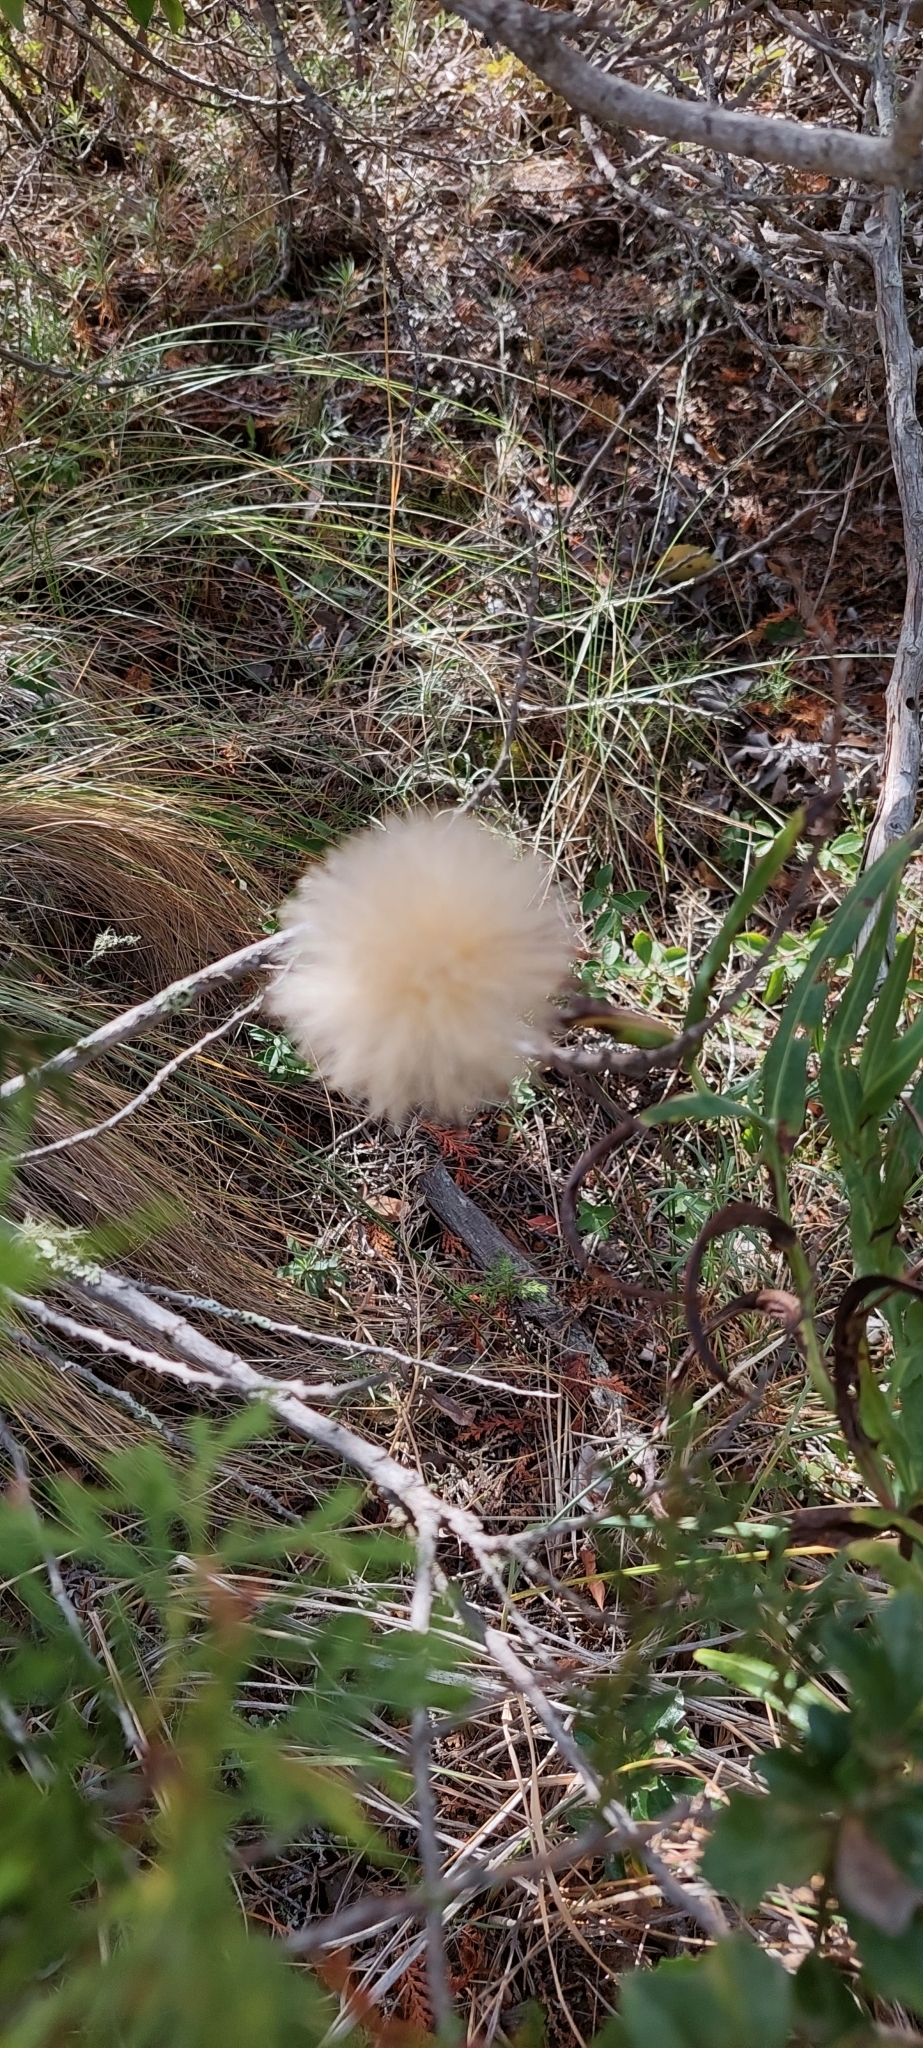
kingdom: Plantae
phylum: Tracheophyta
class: Magnoliopsida
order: Asterales
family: Asteraceae
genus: Mutisia
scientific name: Mutisia decurrens
